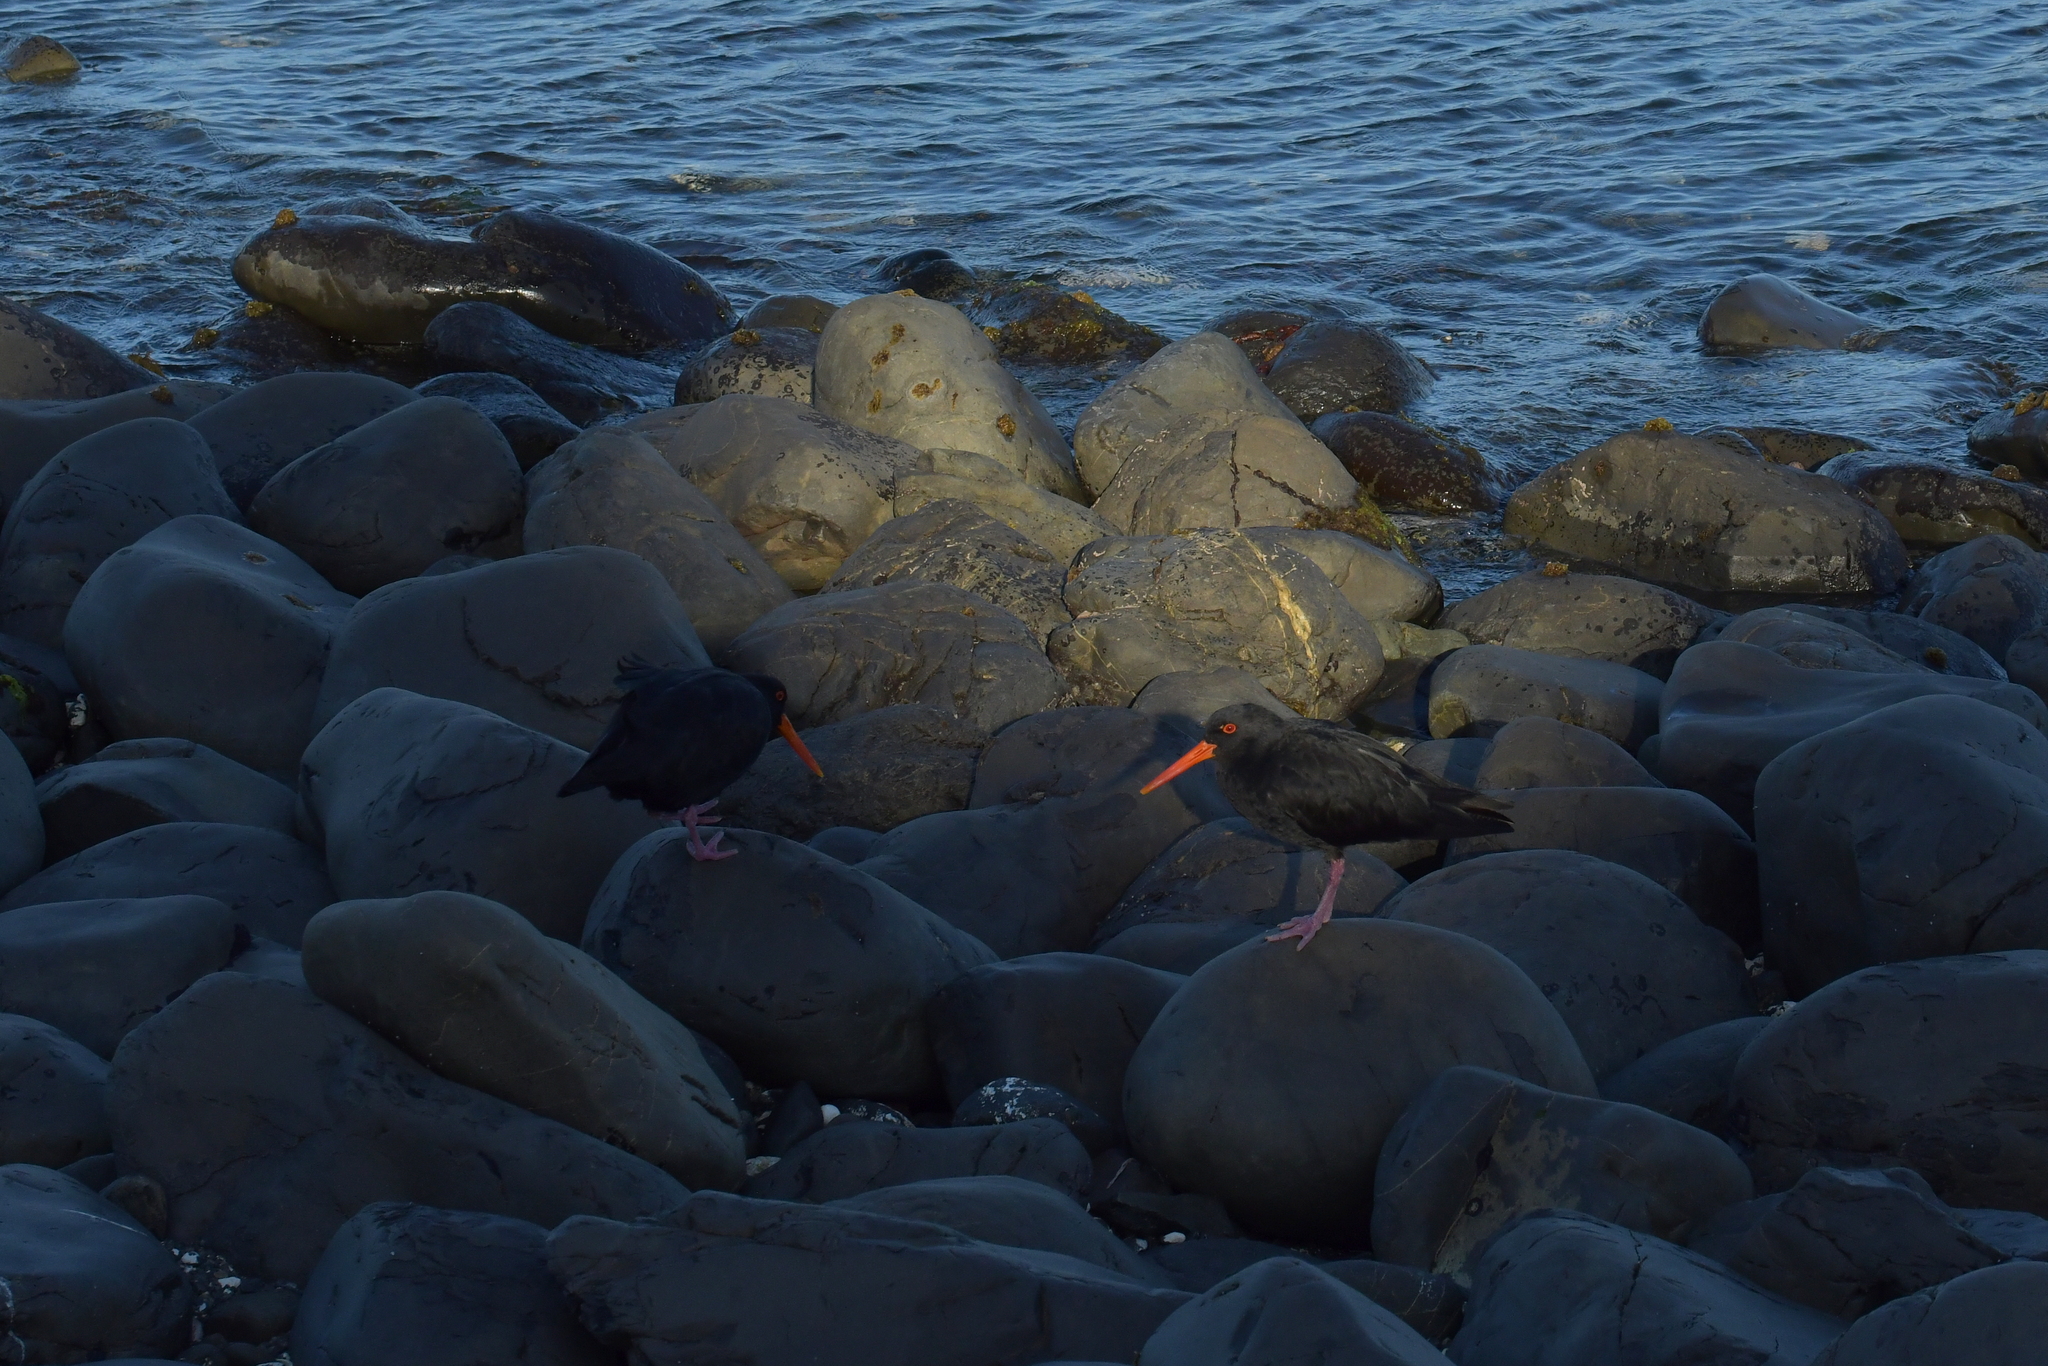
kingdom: Animalia
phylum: Chordata
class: Aves
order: Charadriiformes
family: Haematopodidae
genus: Haematopus
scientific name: Haematopus unicolor
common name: Variable oystercatcher
